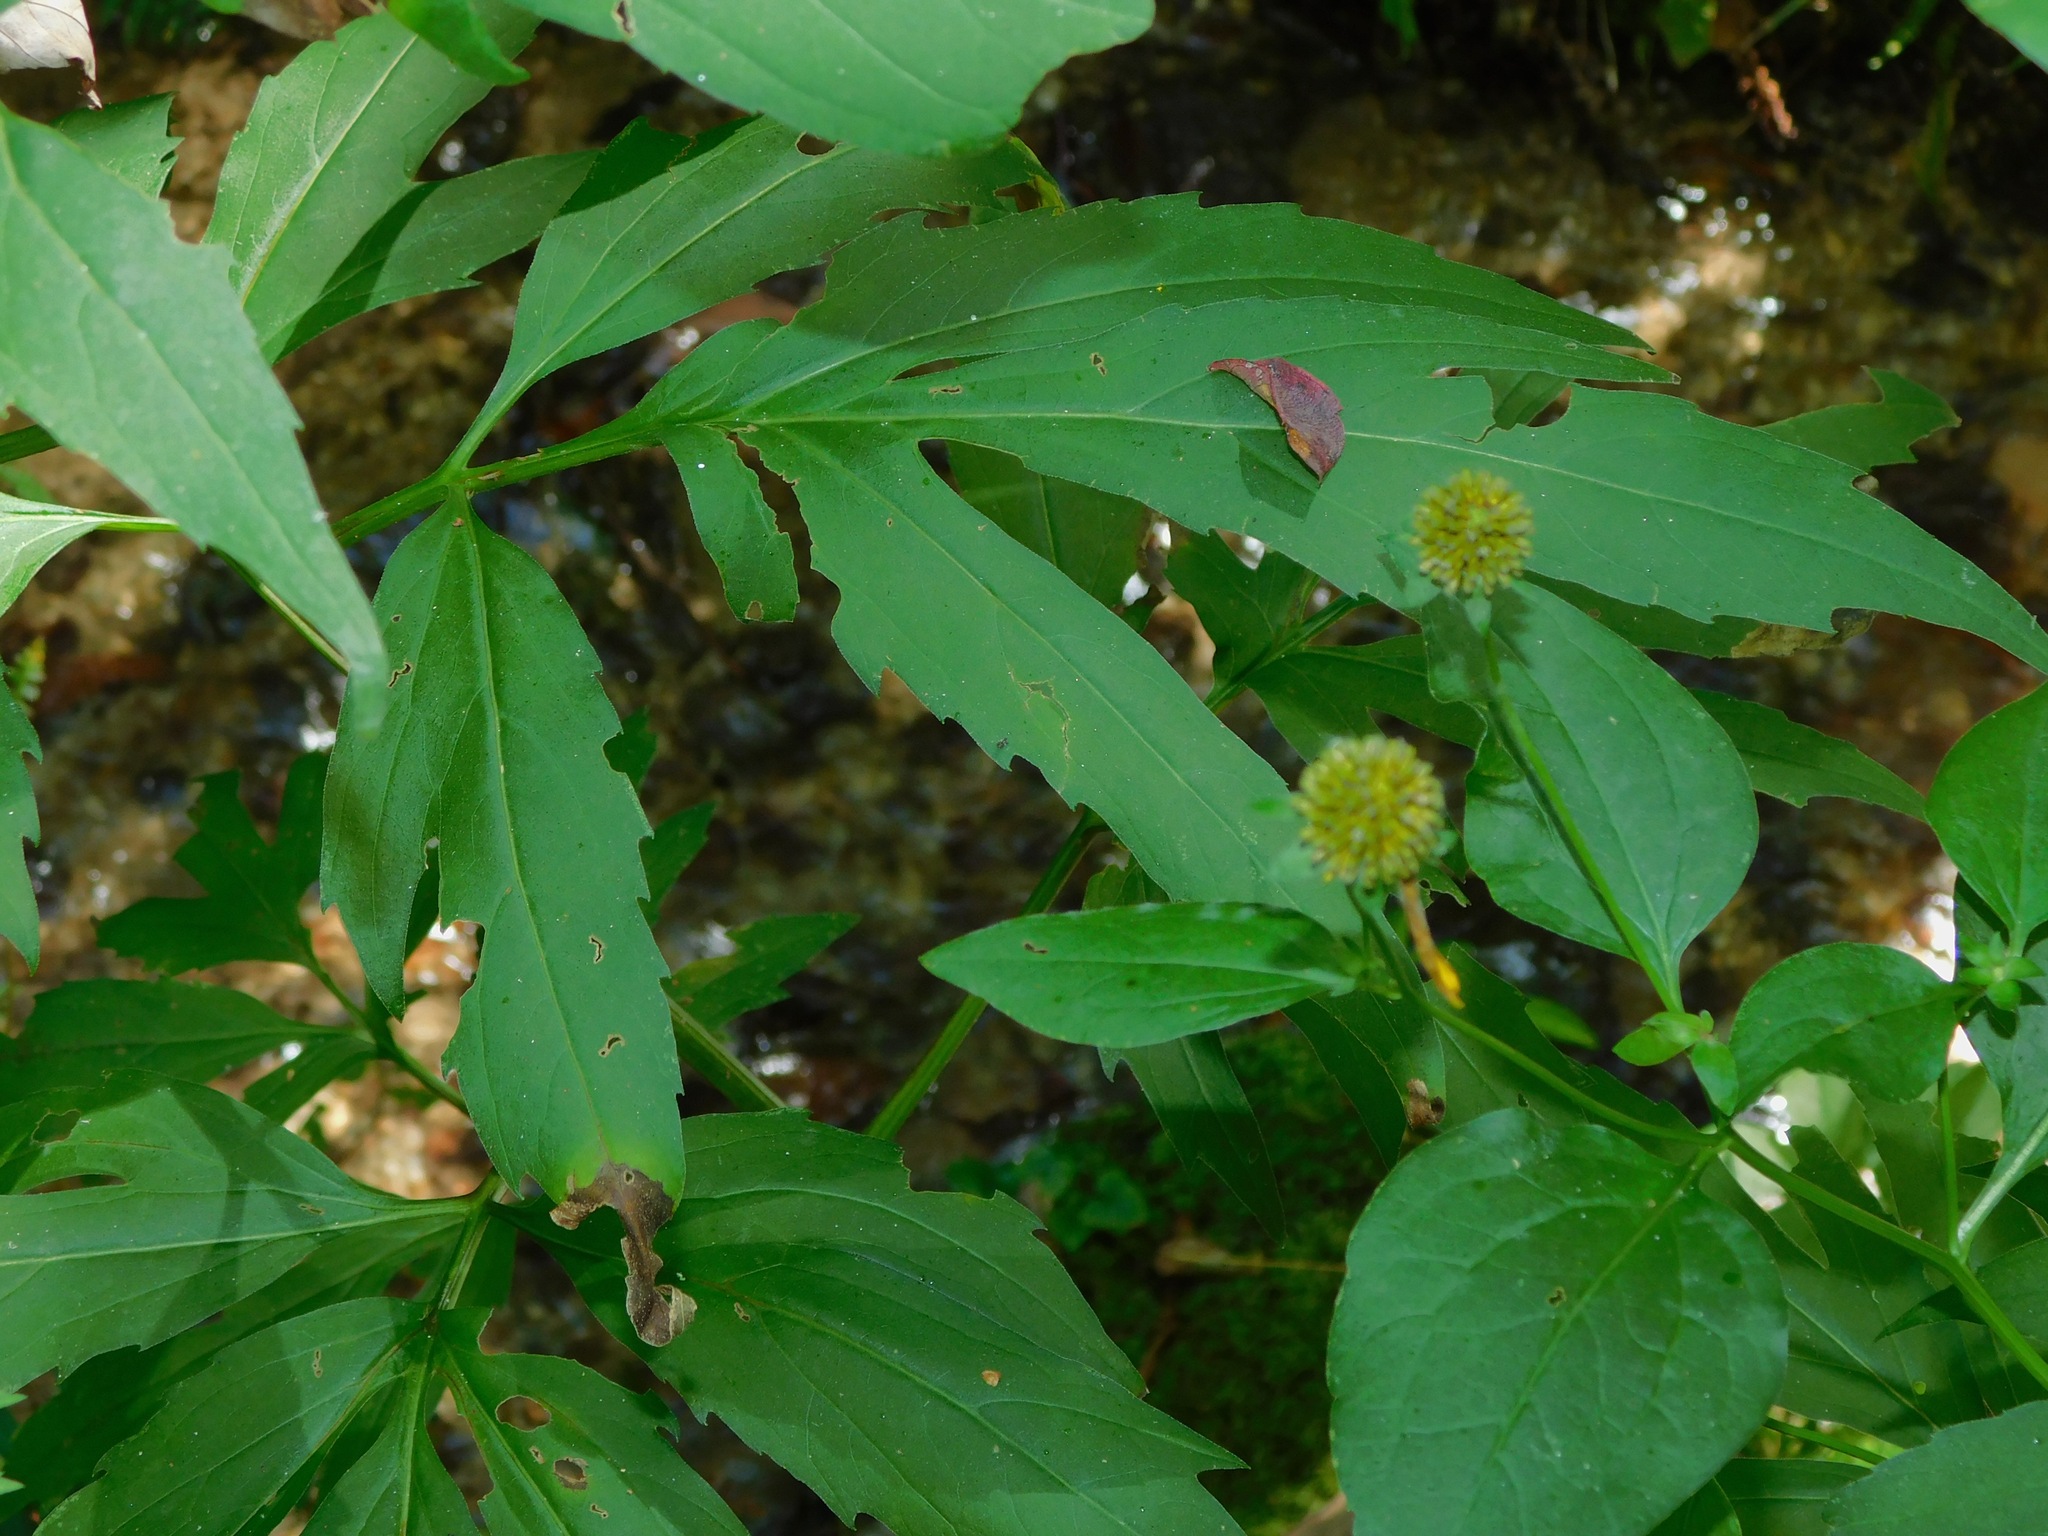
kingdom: Plantae
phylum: Tracheophyta
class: Magnoliopsida
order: Asterales
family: Asteraceae
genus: Rudbeckia
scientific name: Rudbeckia laciniata
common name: Coneflower
